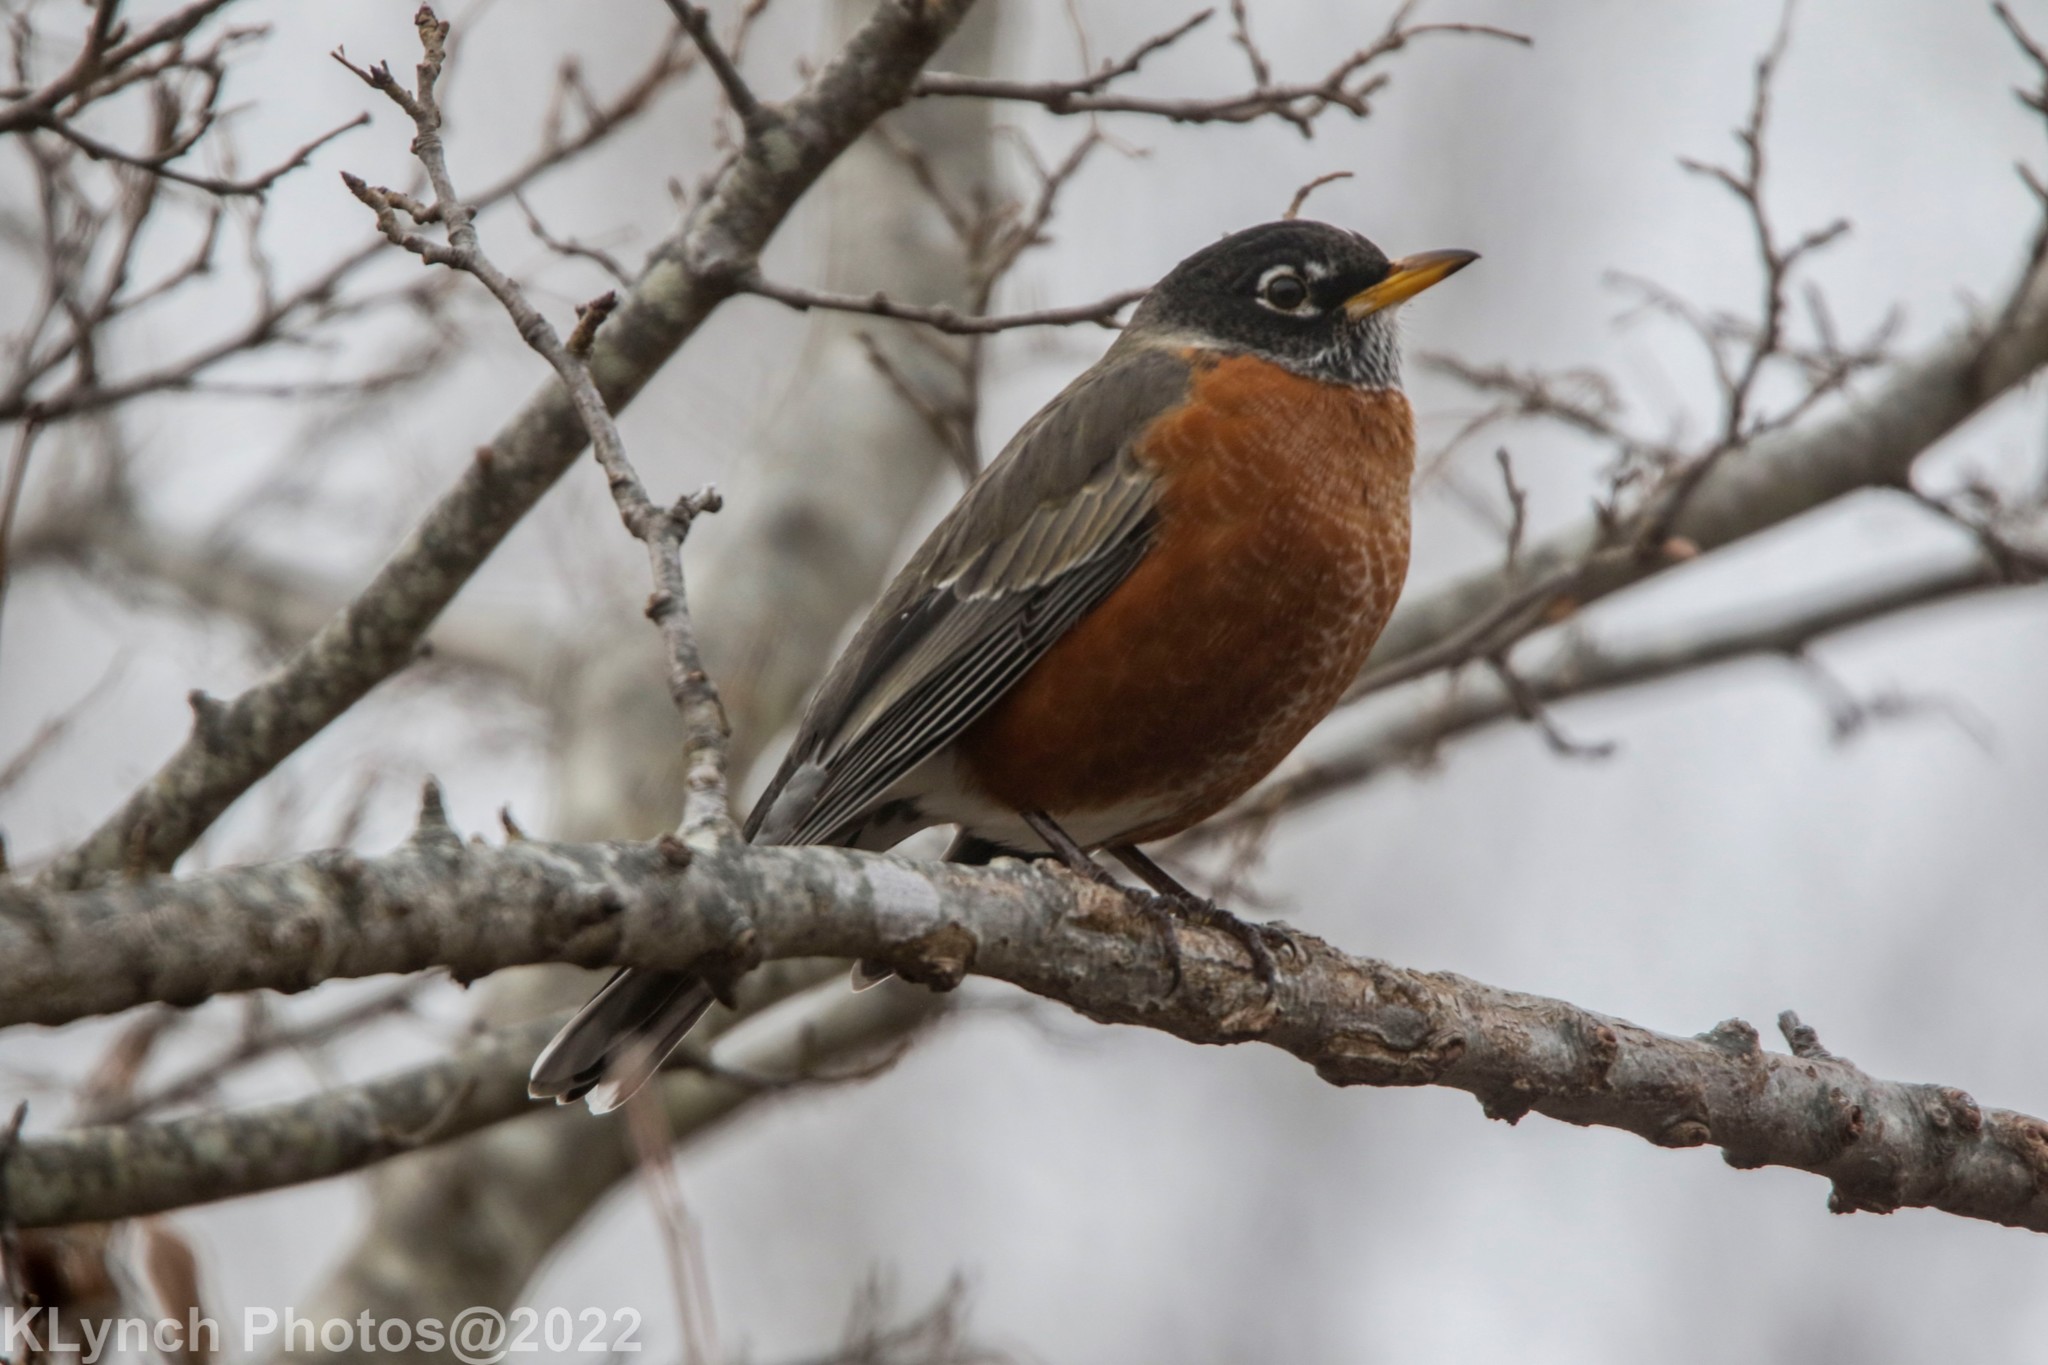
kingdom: Animalia
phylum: Chordata
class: Aves
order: Passeriformes
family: Turdidae
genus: Turdus
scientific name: Turdus migratorius
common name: American robin
